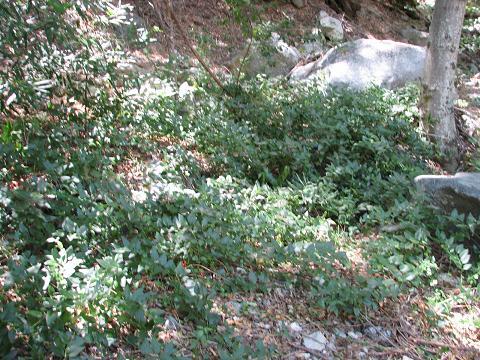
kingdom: Plantae
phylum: Tracheophyta
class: Magnoliopsida
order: Gentianales
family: Apocynaceae
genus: Vinca
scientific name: Vinca major
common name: Greater periwinkle
